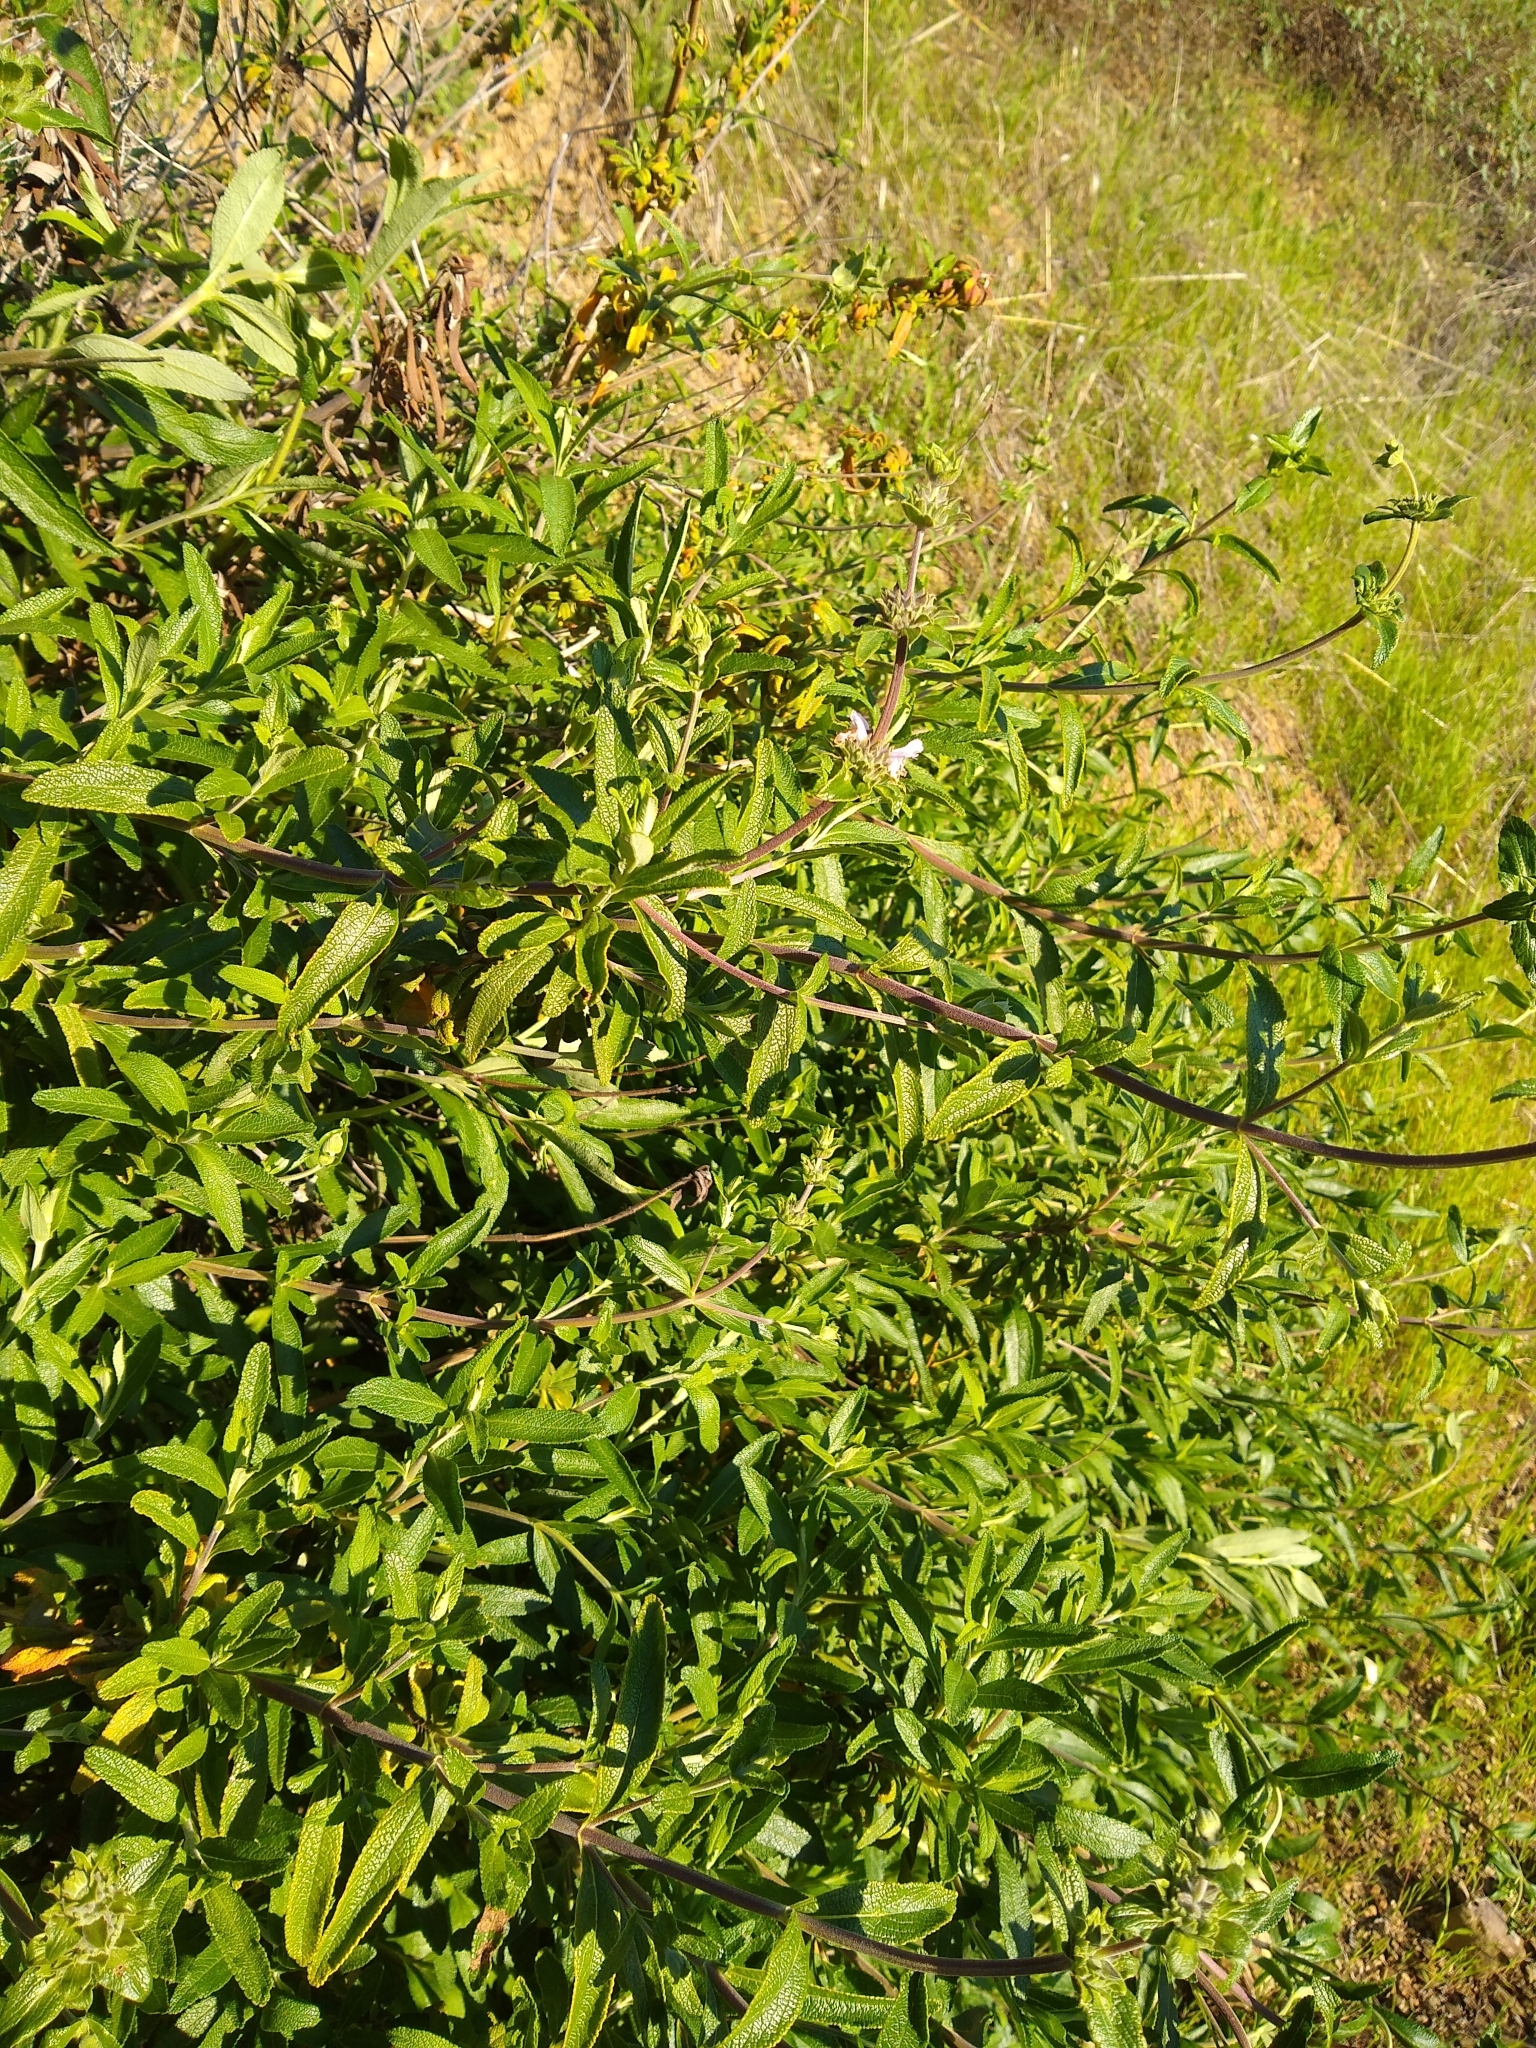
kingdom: Plantae
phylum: Tracheophyta
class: Magnoliopsida
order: Lamiales
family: Lamiaceae
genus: Salvia
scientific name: Salvia mellifera
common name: Black sage
